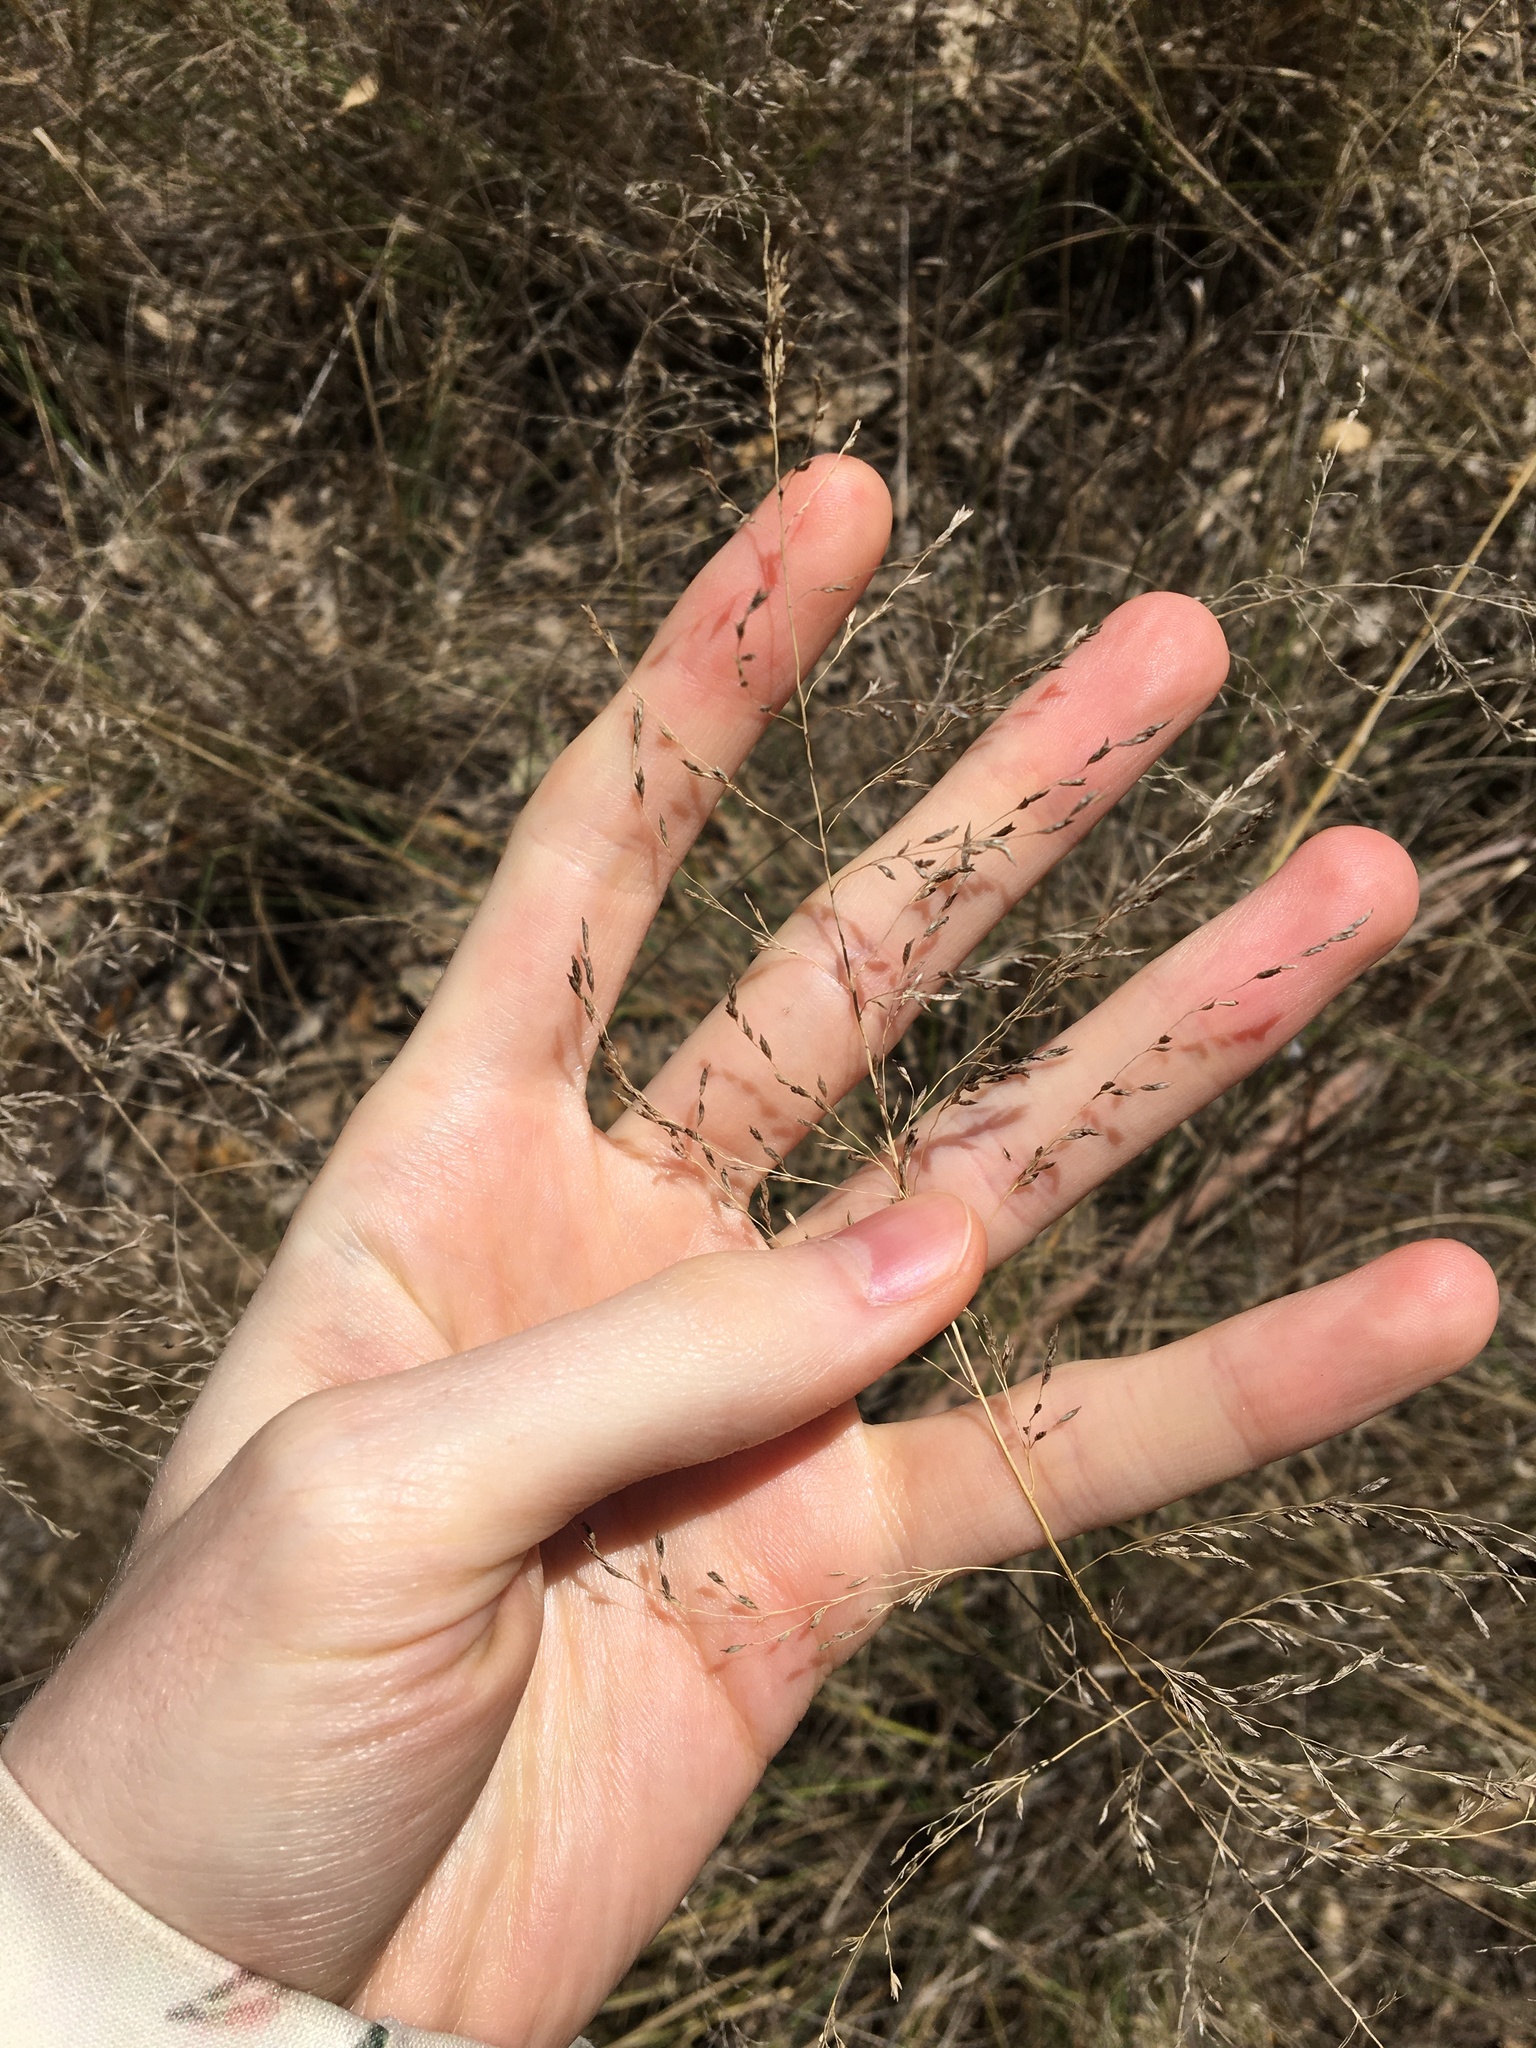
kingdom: Plantae
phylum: Tracheophyta
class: Liliopsida
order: Poales
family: Poaceae
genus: Eragrostis
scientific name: Eragrostis curvula
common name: African love-grass
